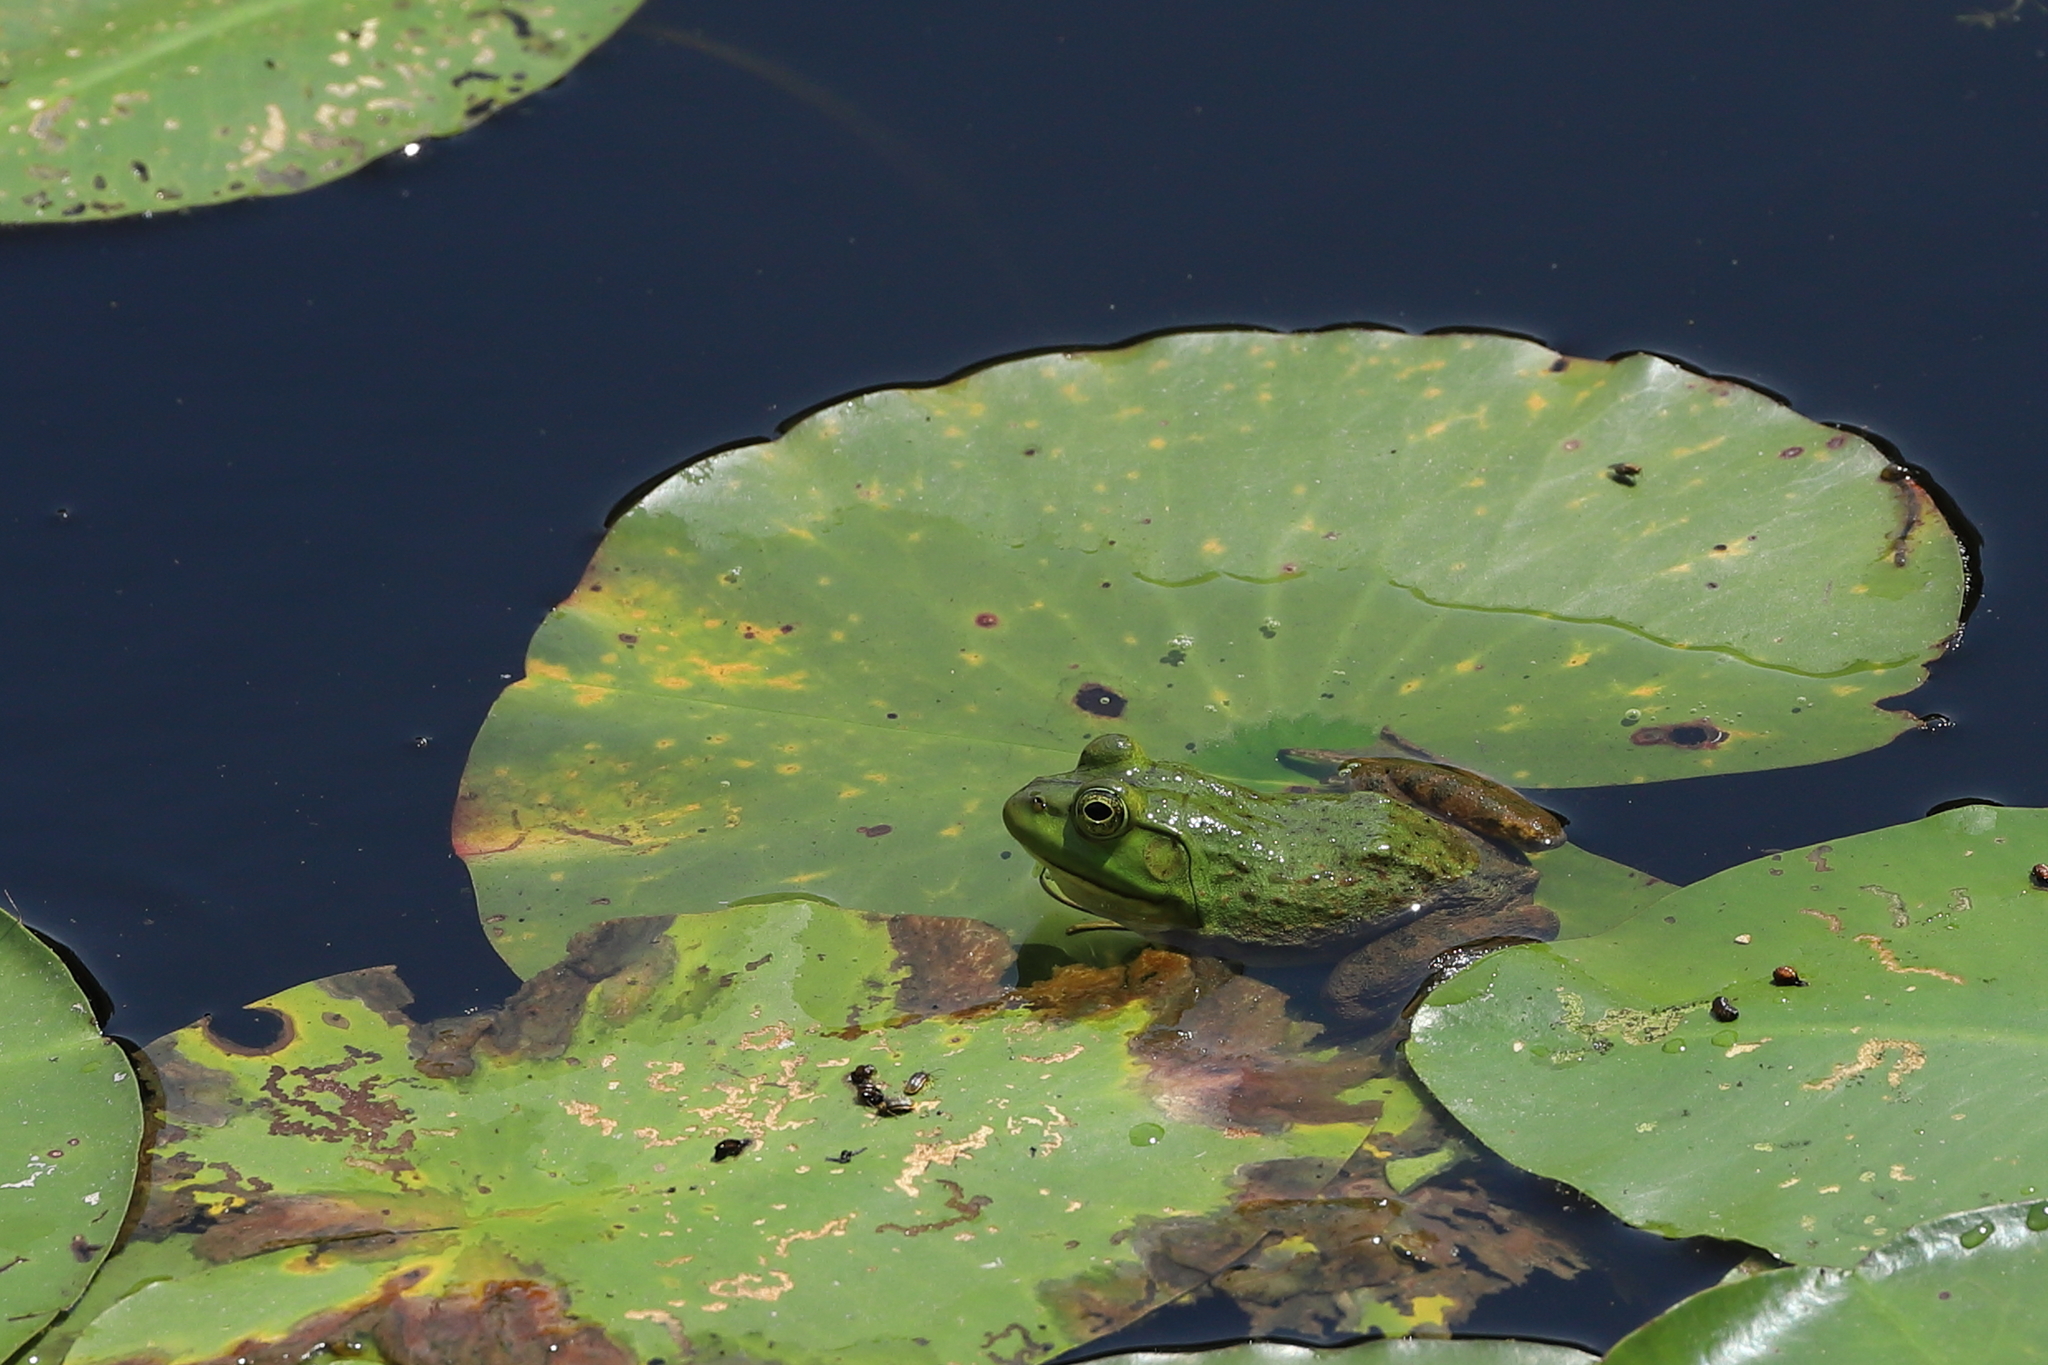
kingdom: Animalia
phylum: Chordata
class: Amphibia
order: Anura
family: Ranidae
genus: Lithobates
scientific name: Lithobates catesbeianus
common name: American bullfrog
